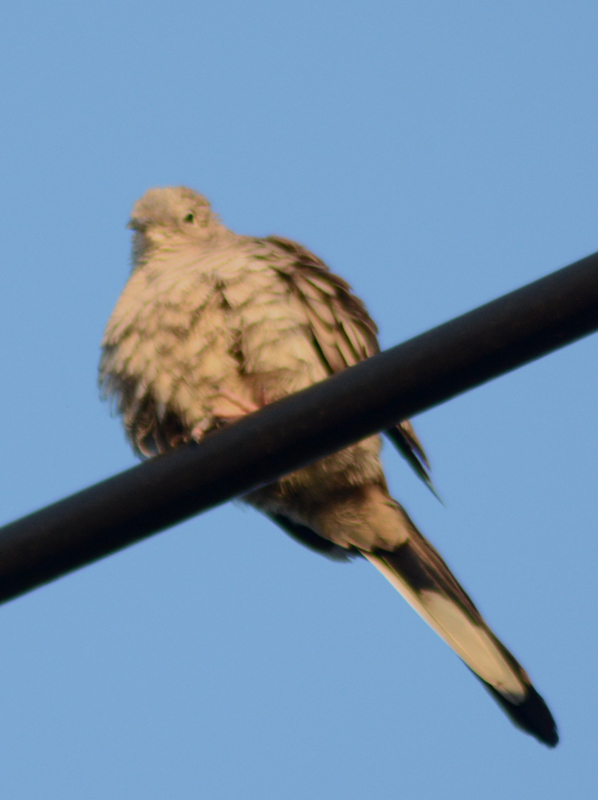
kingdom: Animalia
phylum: Chordata
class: Aves
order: Columbiformes
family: Columbidae
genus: Columbina
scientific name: Columbina inca
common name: Inca dove
